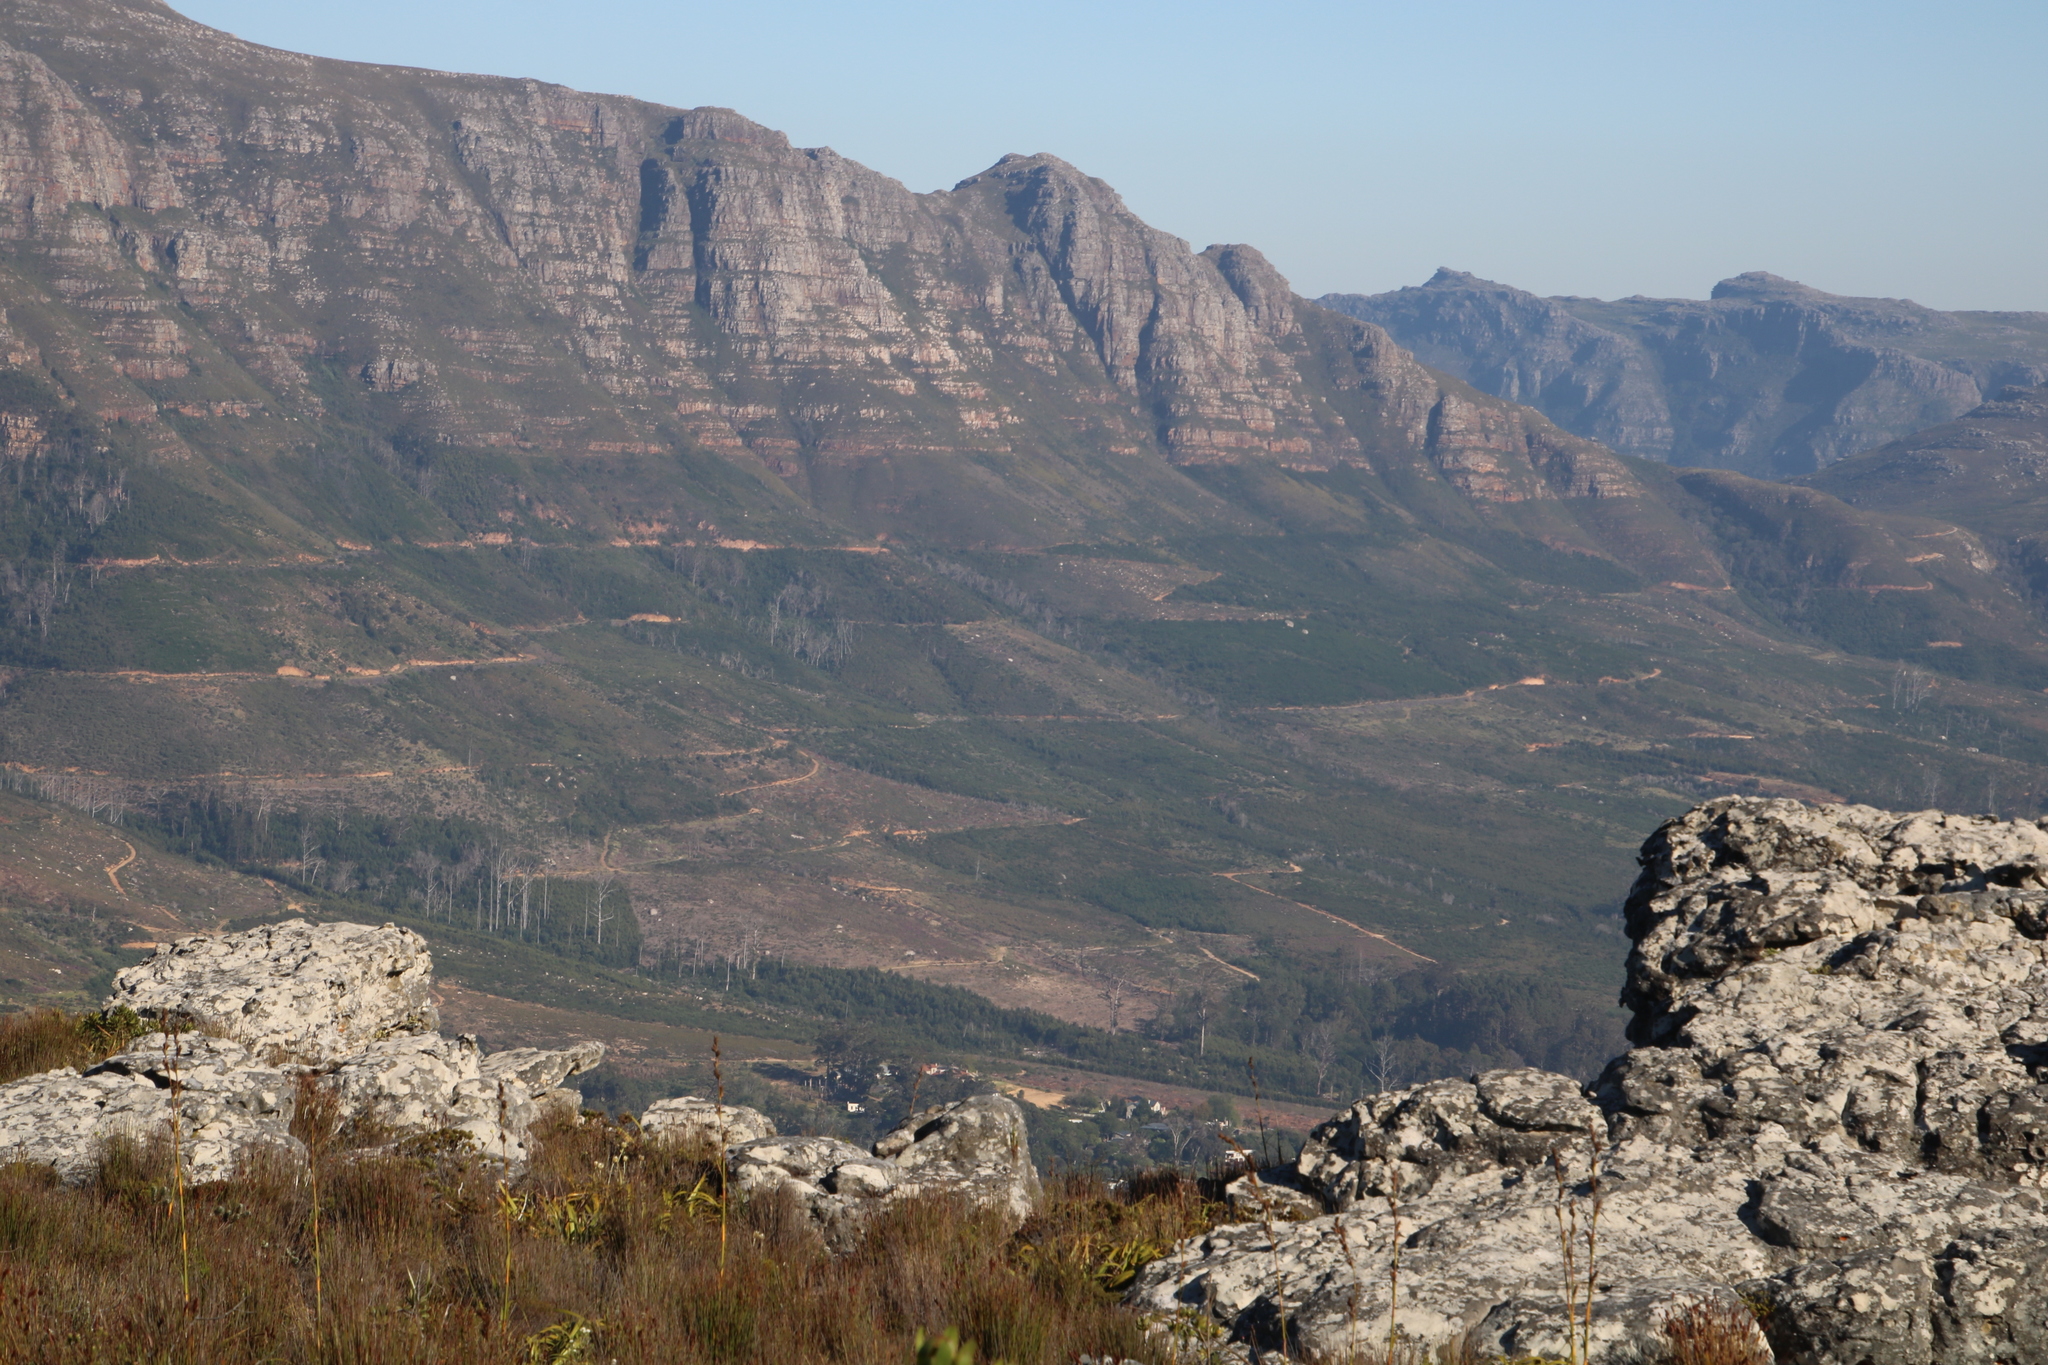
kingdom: Plantae
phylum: Tracheophyta
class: Liliopsida
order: Poales
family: Cyperaceae
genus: Tetraria
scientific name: Tetraria thermalis
